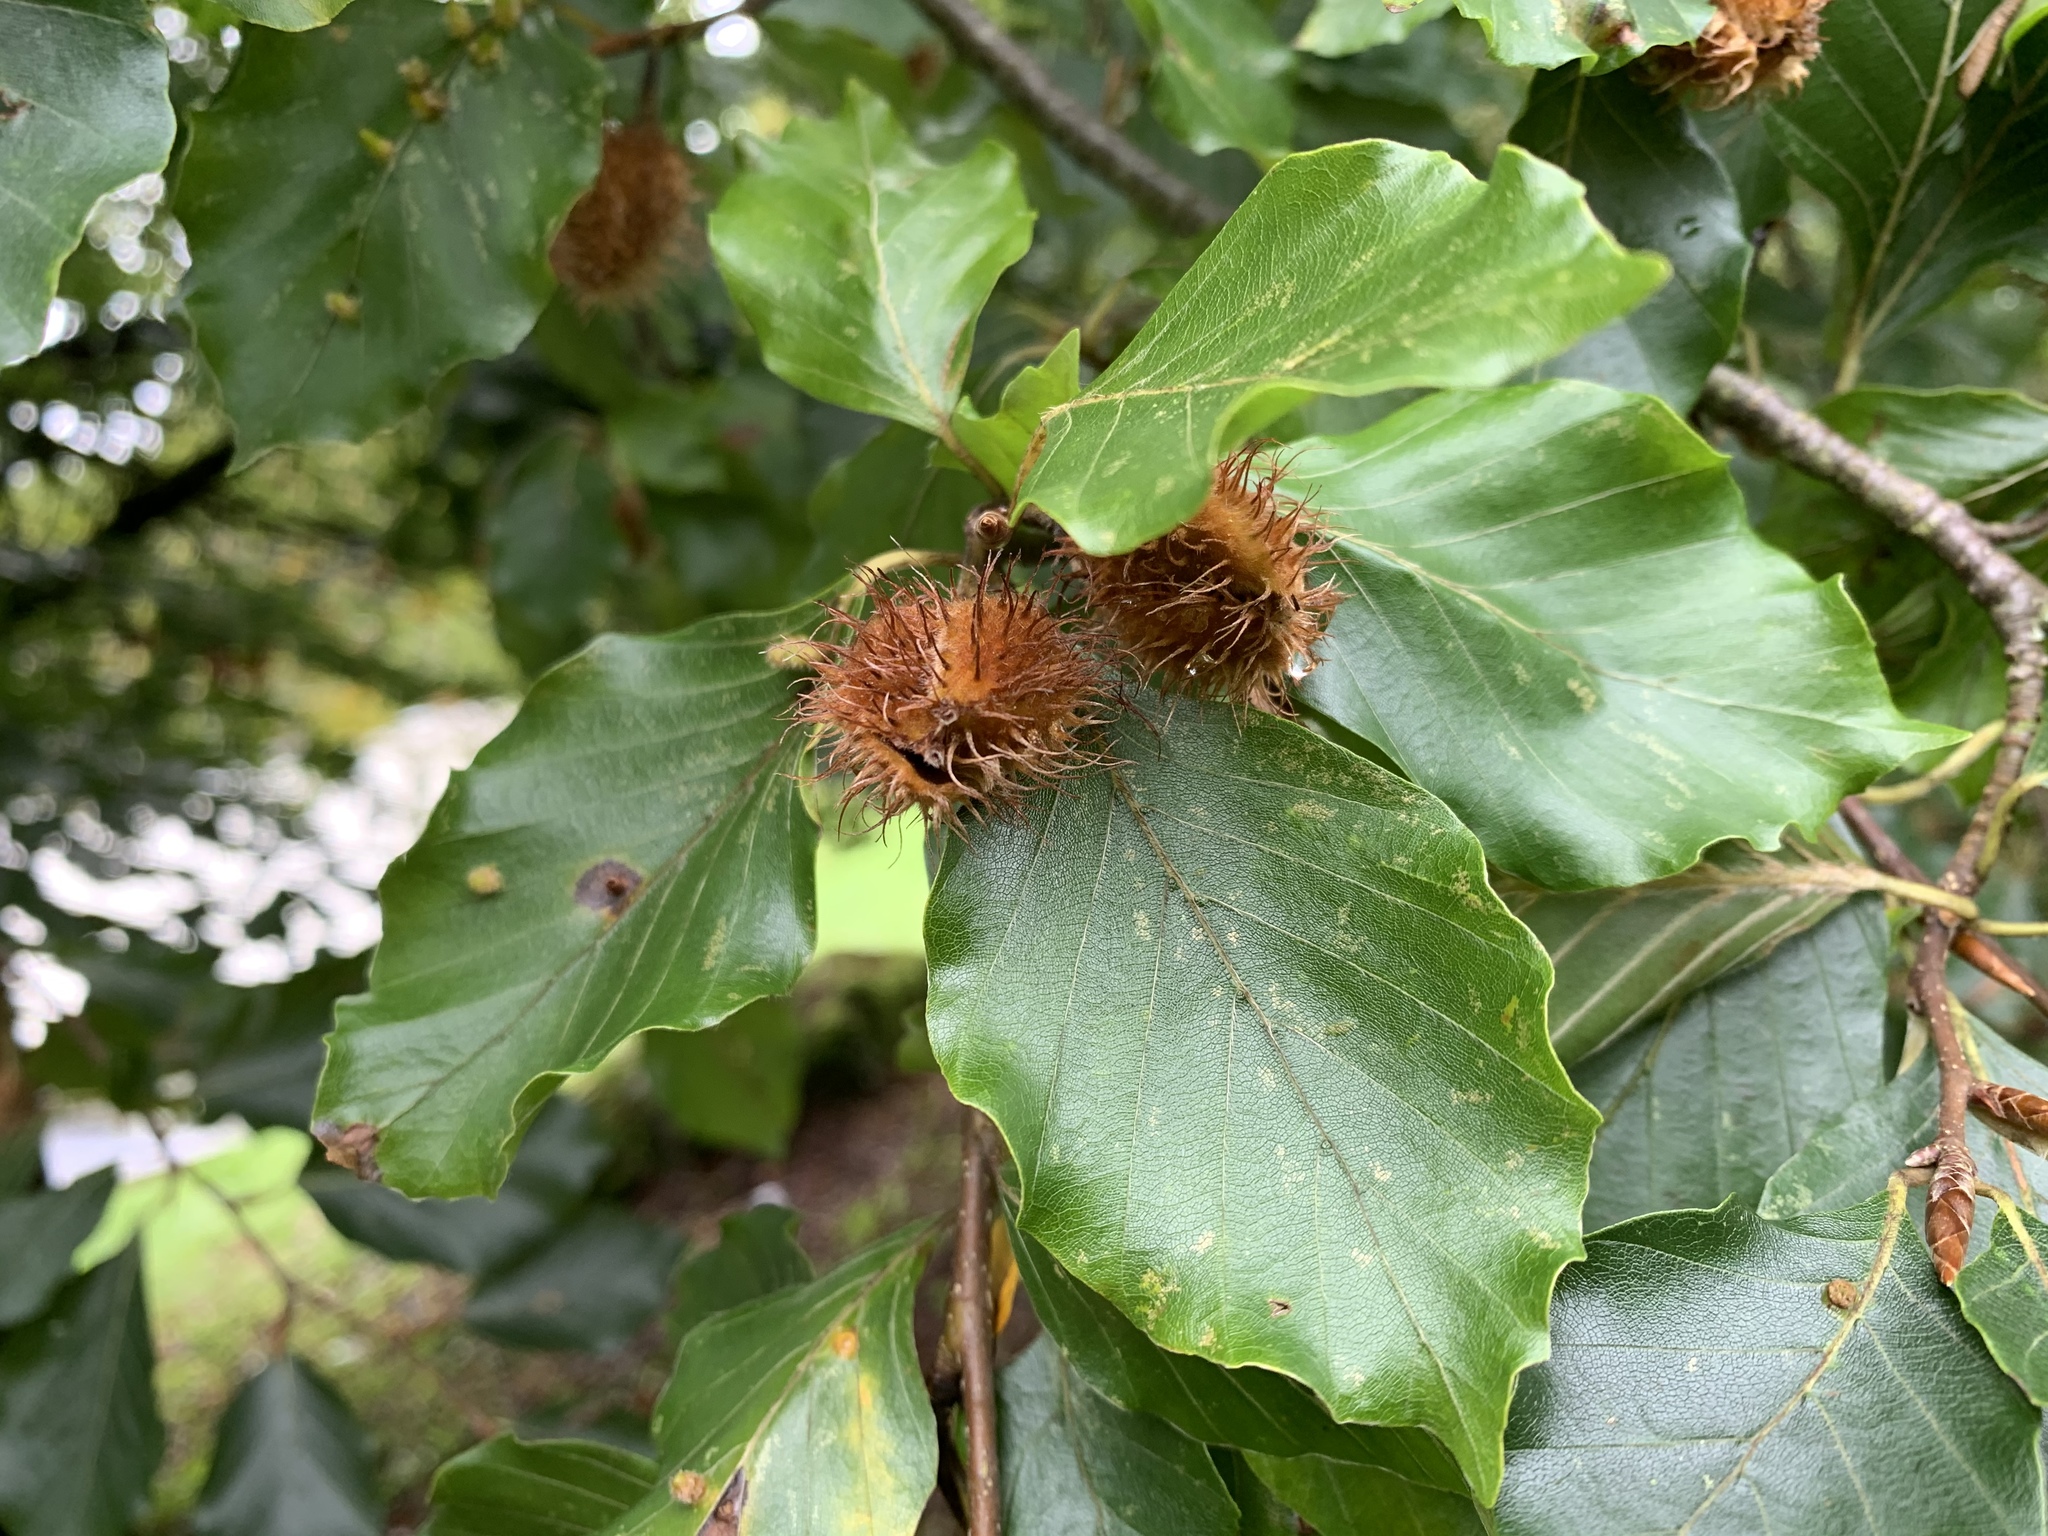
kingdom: Plantae
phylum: Tracheophyta
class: Magnoliopsida
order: Fagales
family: Fagaceae
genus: Fagus
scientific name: Fagus sylvatica
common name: Beech
